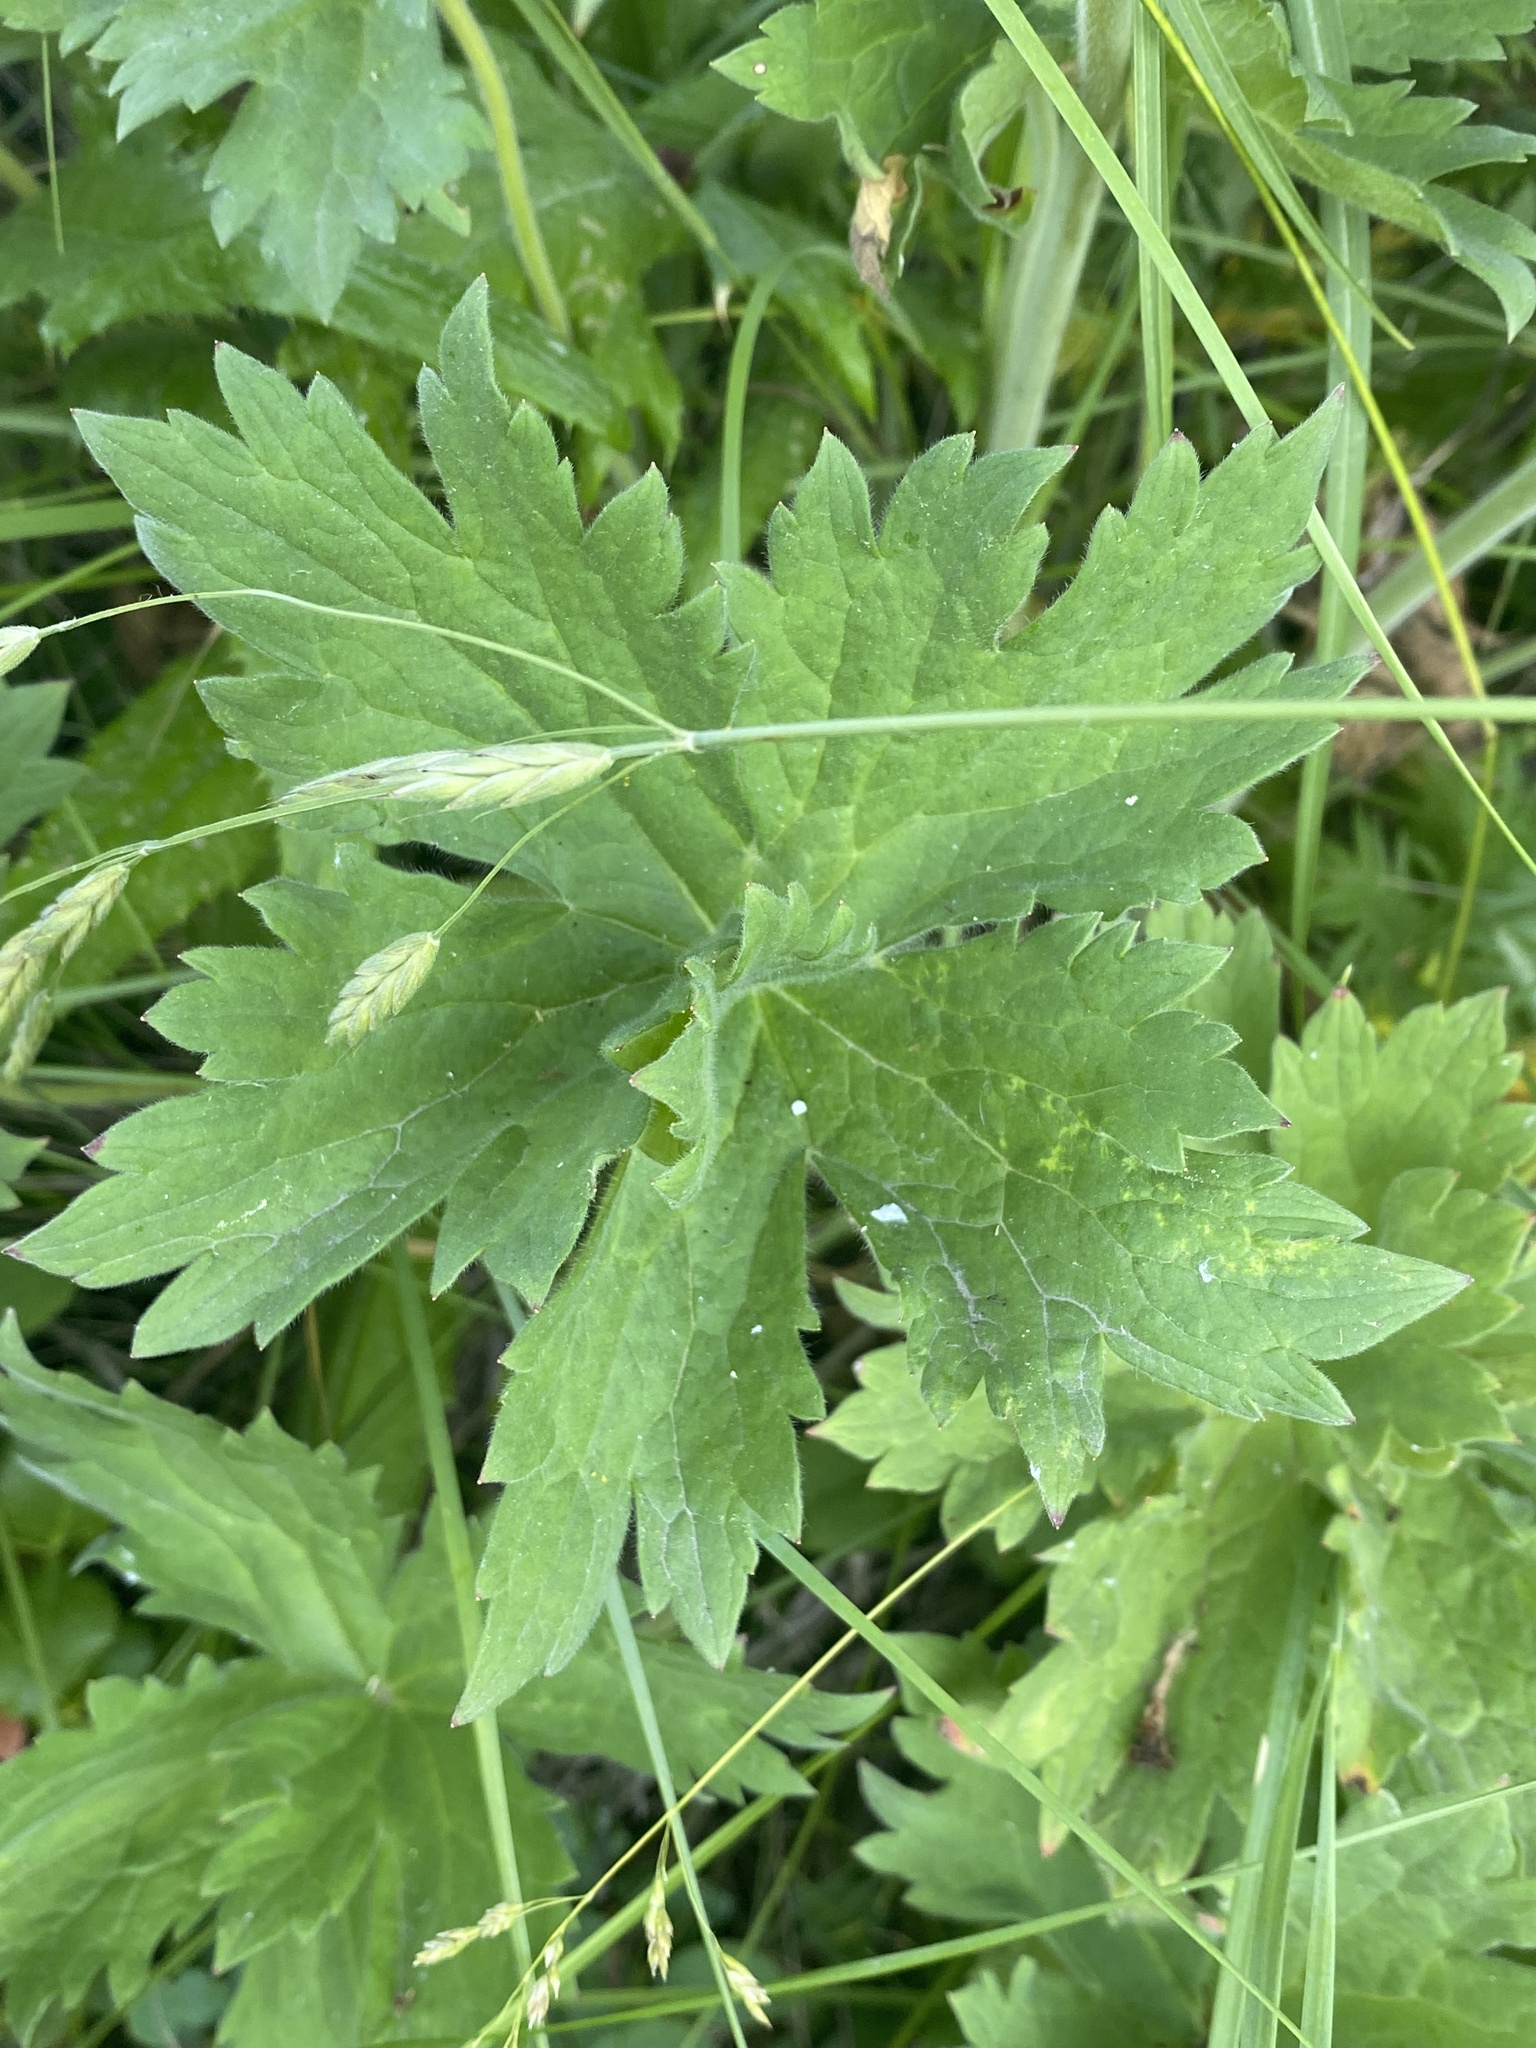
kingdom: Plantae
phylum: Tracheophyta
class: Magnoliopsida
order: Geraniales
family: Geraniaceae
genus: Geranium
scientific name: Geranium viscosissimum
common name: Purple geranium
